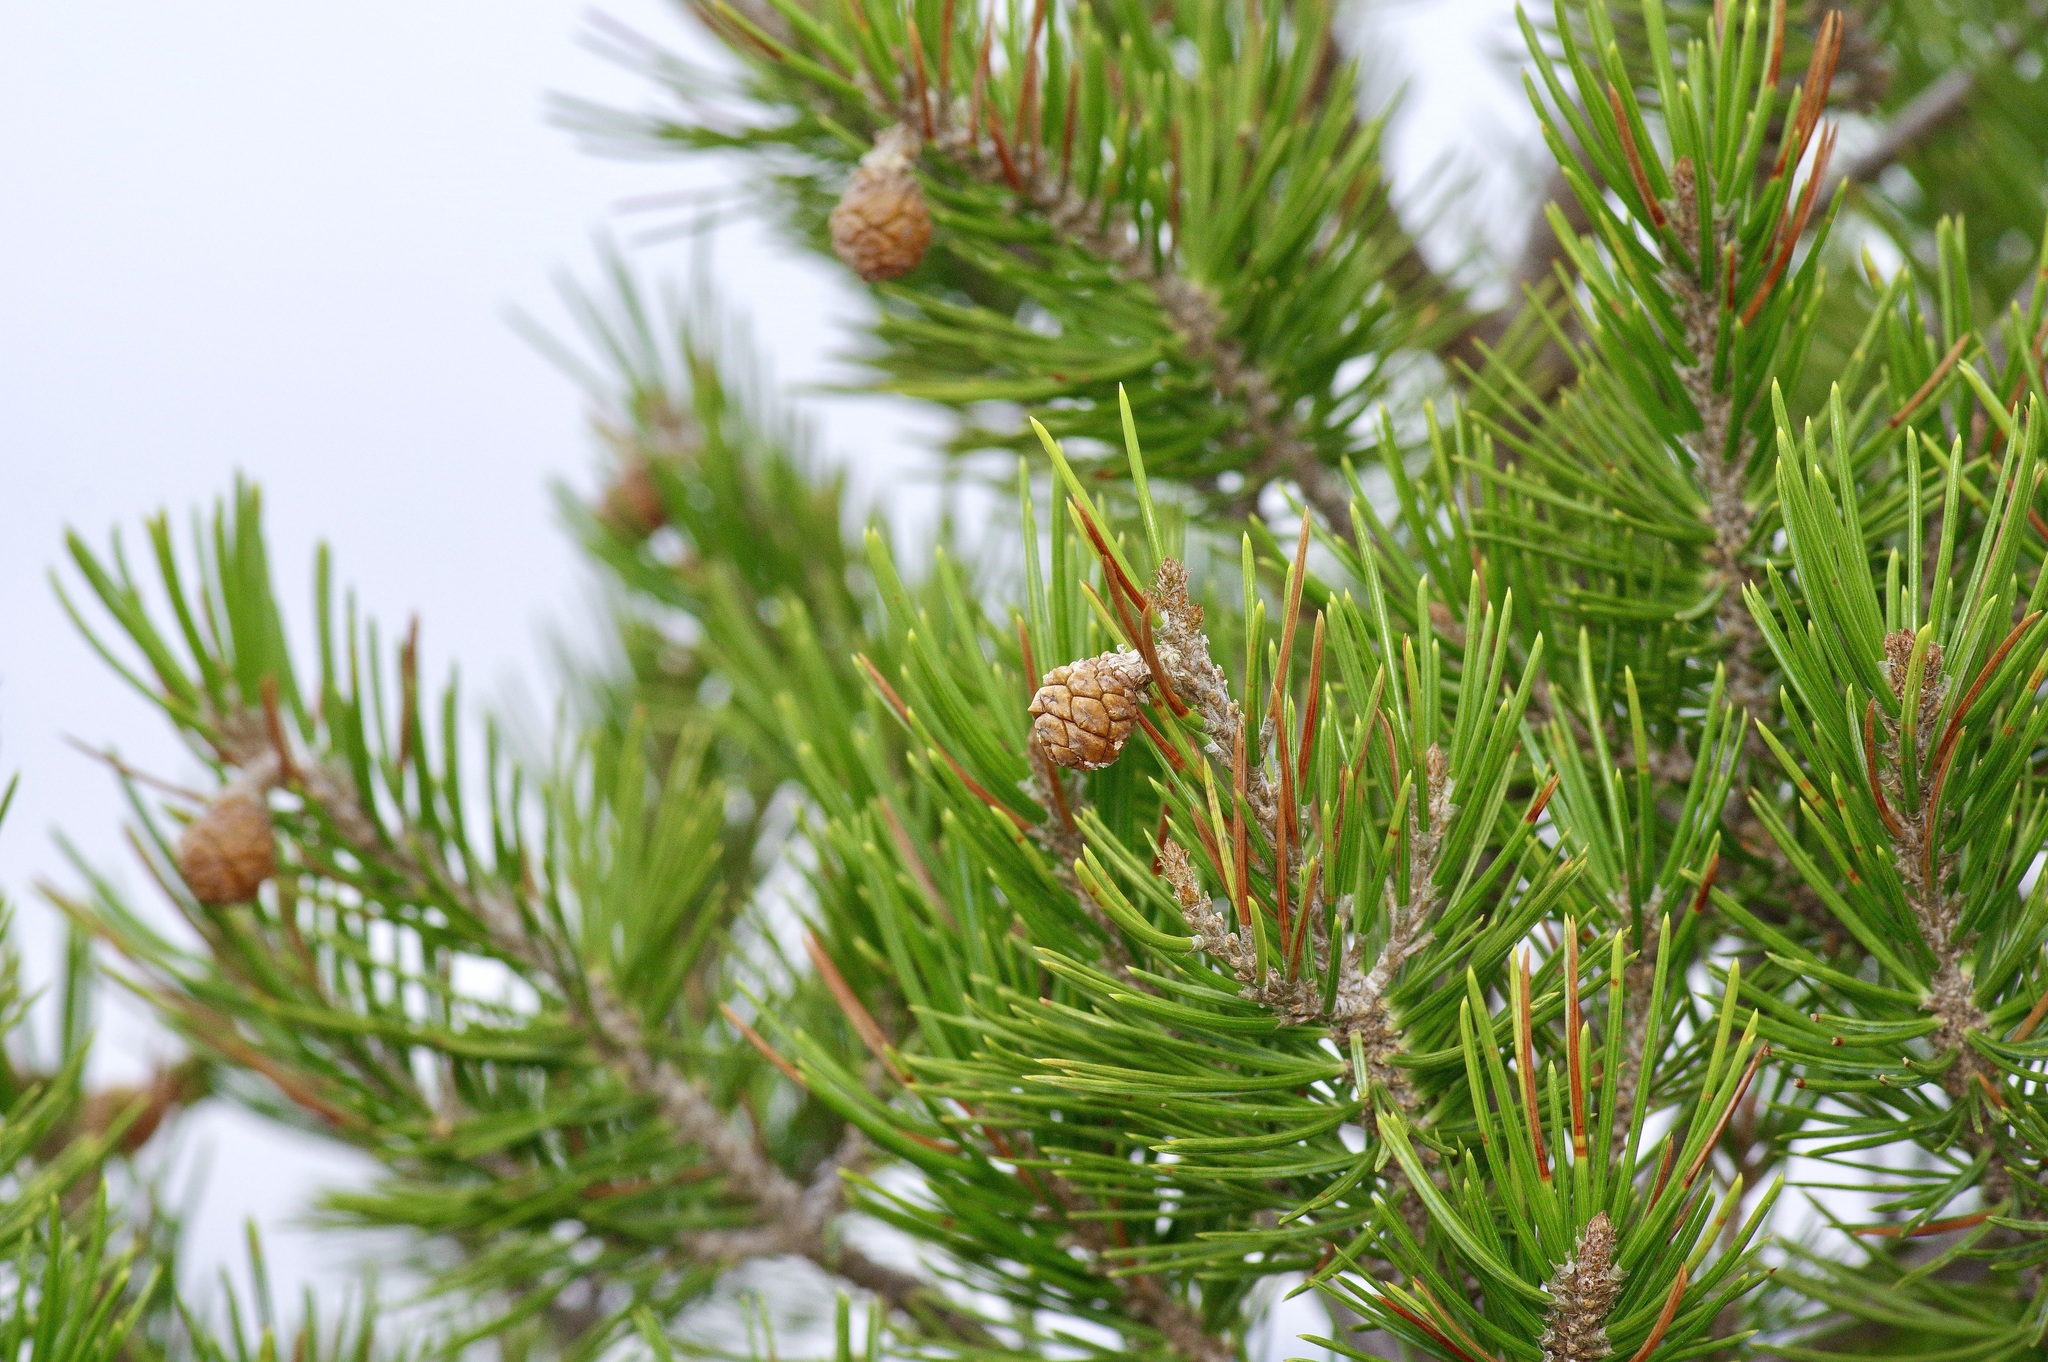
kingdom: Plantae
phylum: Tracheophyta
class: Pinopsida
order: Pinales
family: Pinaceae
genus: Pinus
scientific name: Pinus remota
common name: Nut pine
